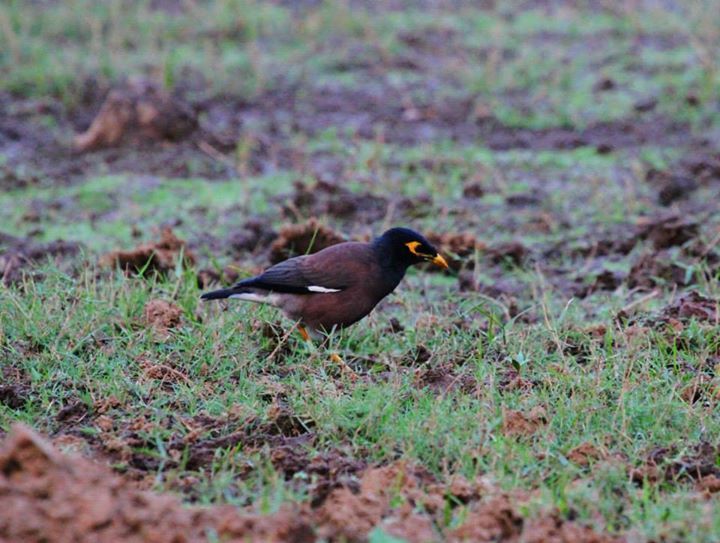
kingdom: Animalia
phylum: Chordata
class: Aves
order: Passeriformes
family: Sturnidae
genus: Acridotheres
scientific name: Acridotheres tristis
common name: Common myna
